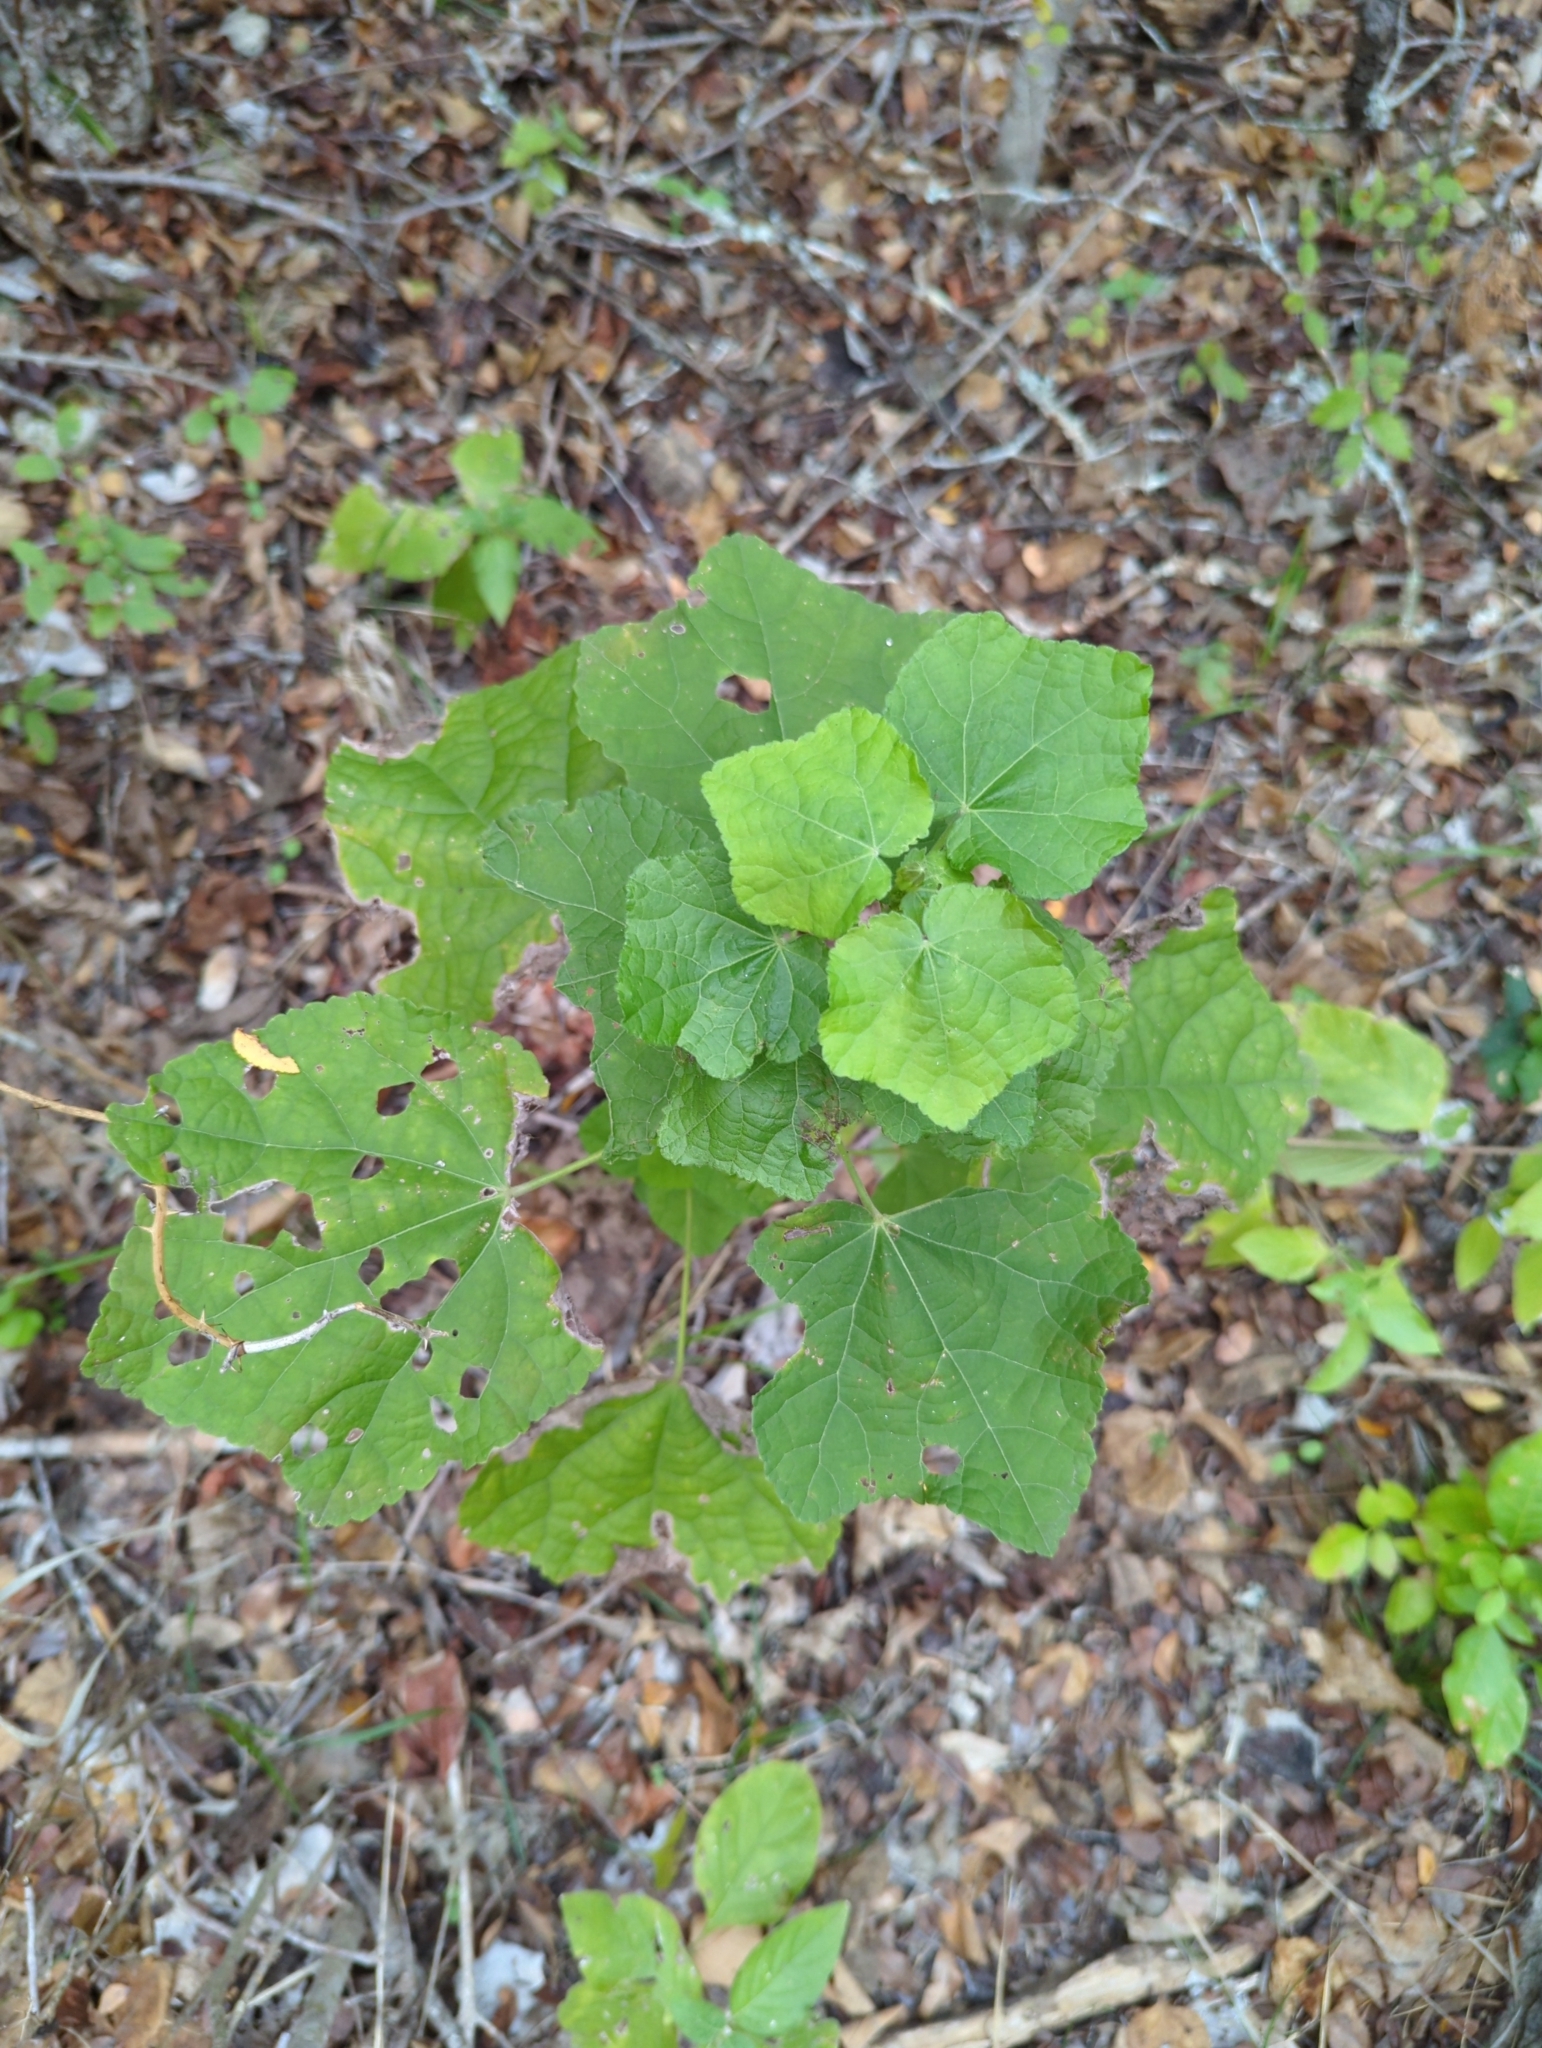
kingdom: Plantae
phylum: Tracheophyta
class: Magnoliopsida
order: Malvales
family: Malvaceae
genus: Malvaviscus
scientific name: Malvaviscus arboreus
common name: Wax mallow
